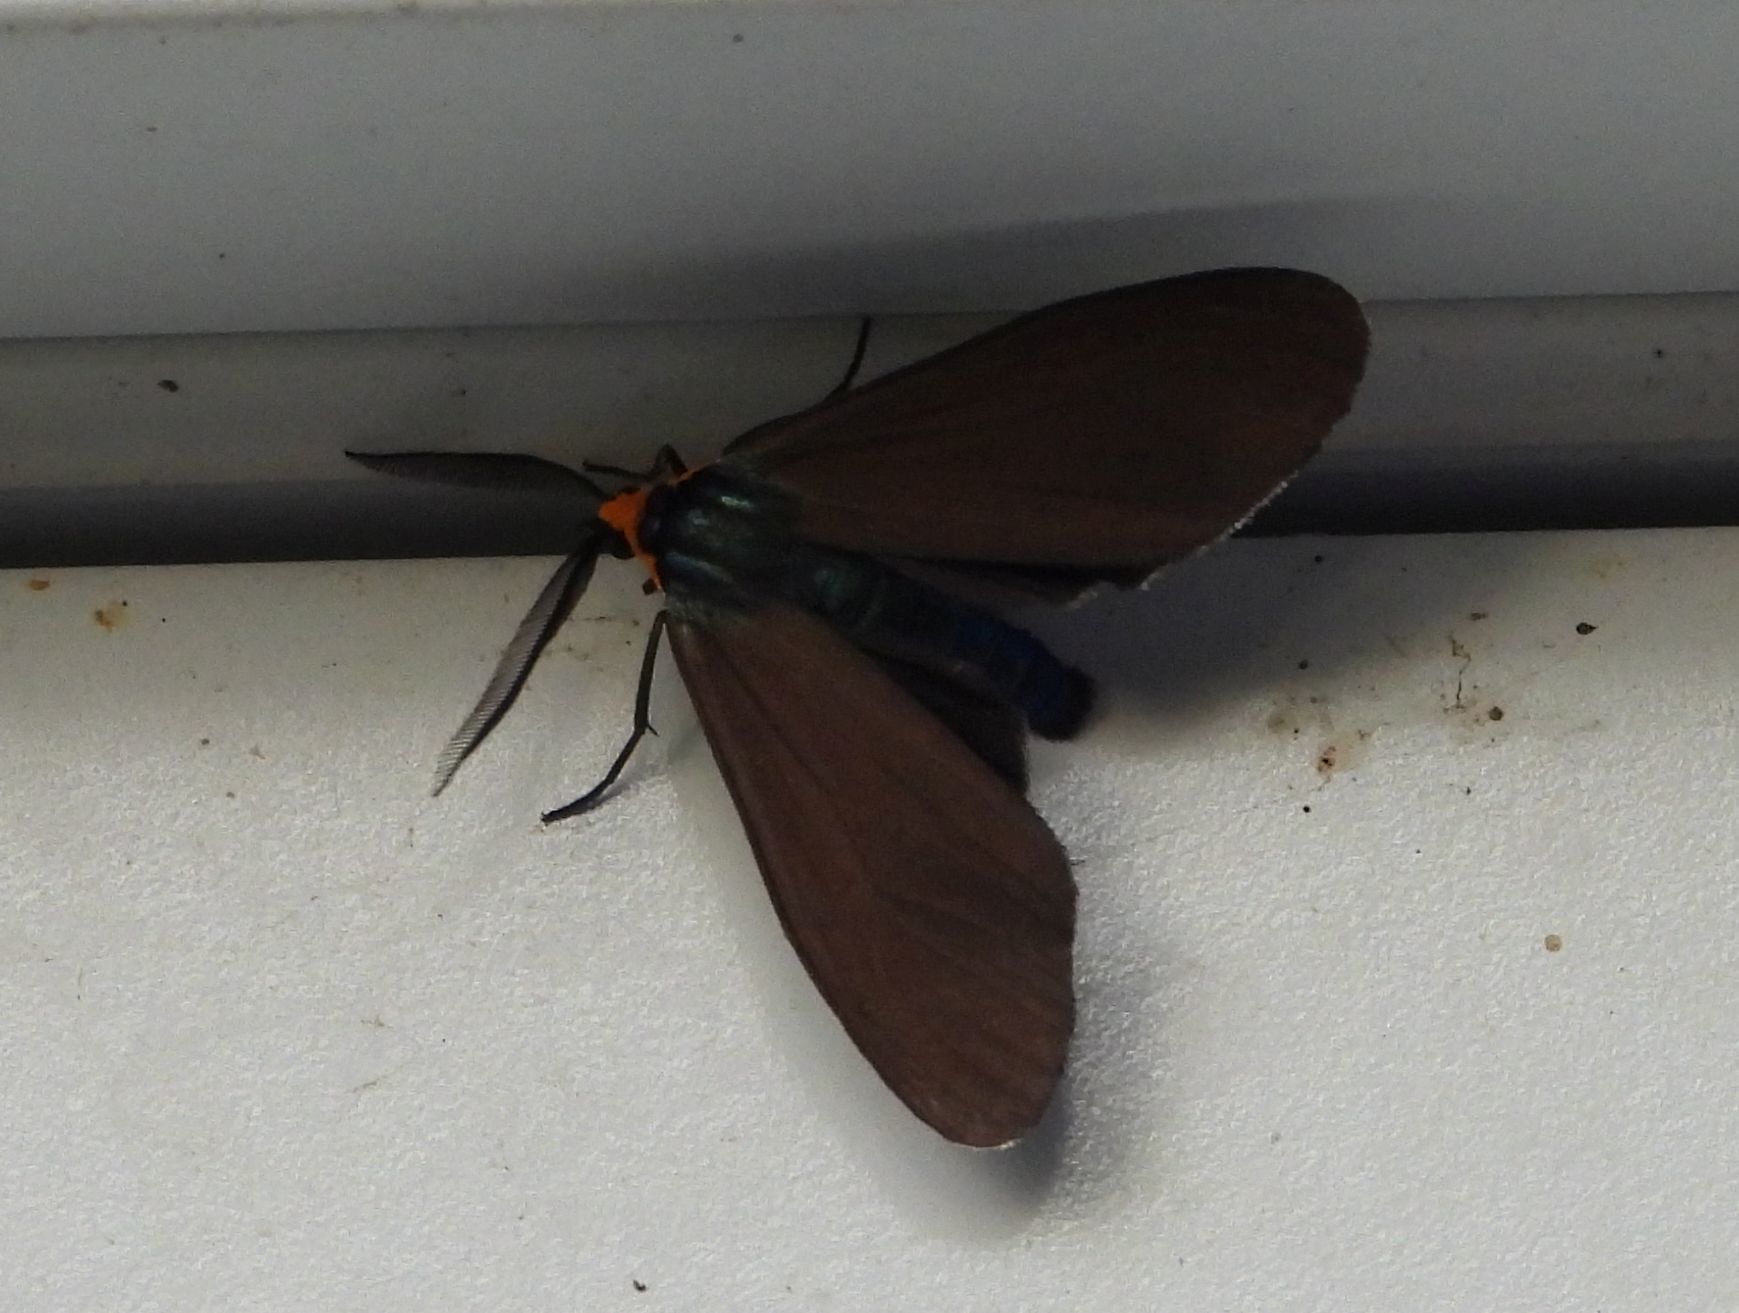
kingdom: Animalia
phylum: Arthropoda
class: Insecta
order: Lepidoptera
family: Erebidae
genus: Ctenucha
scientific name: Ctenucha virginica
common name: Virginia ctenucha moth
